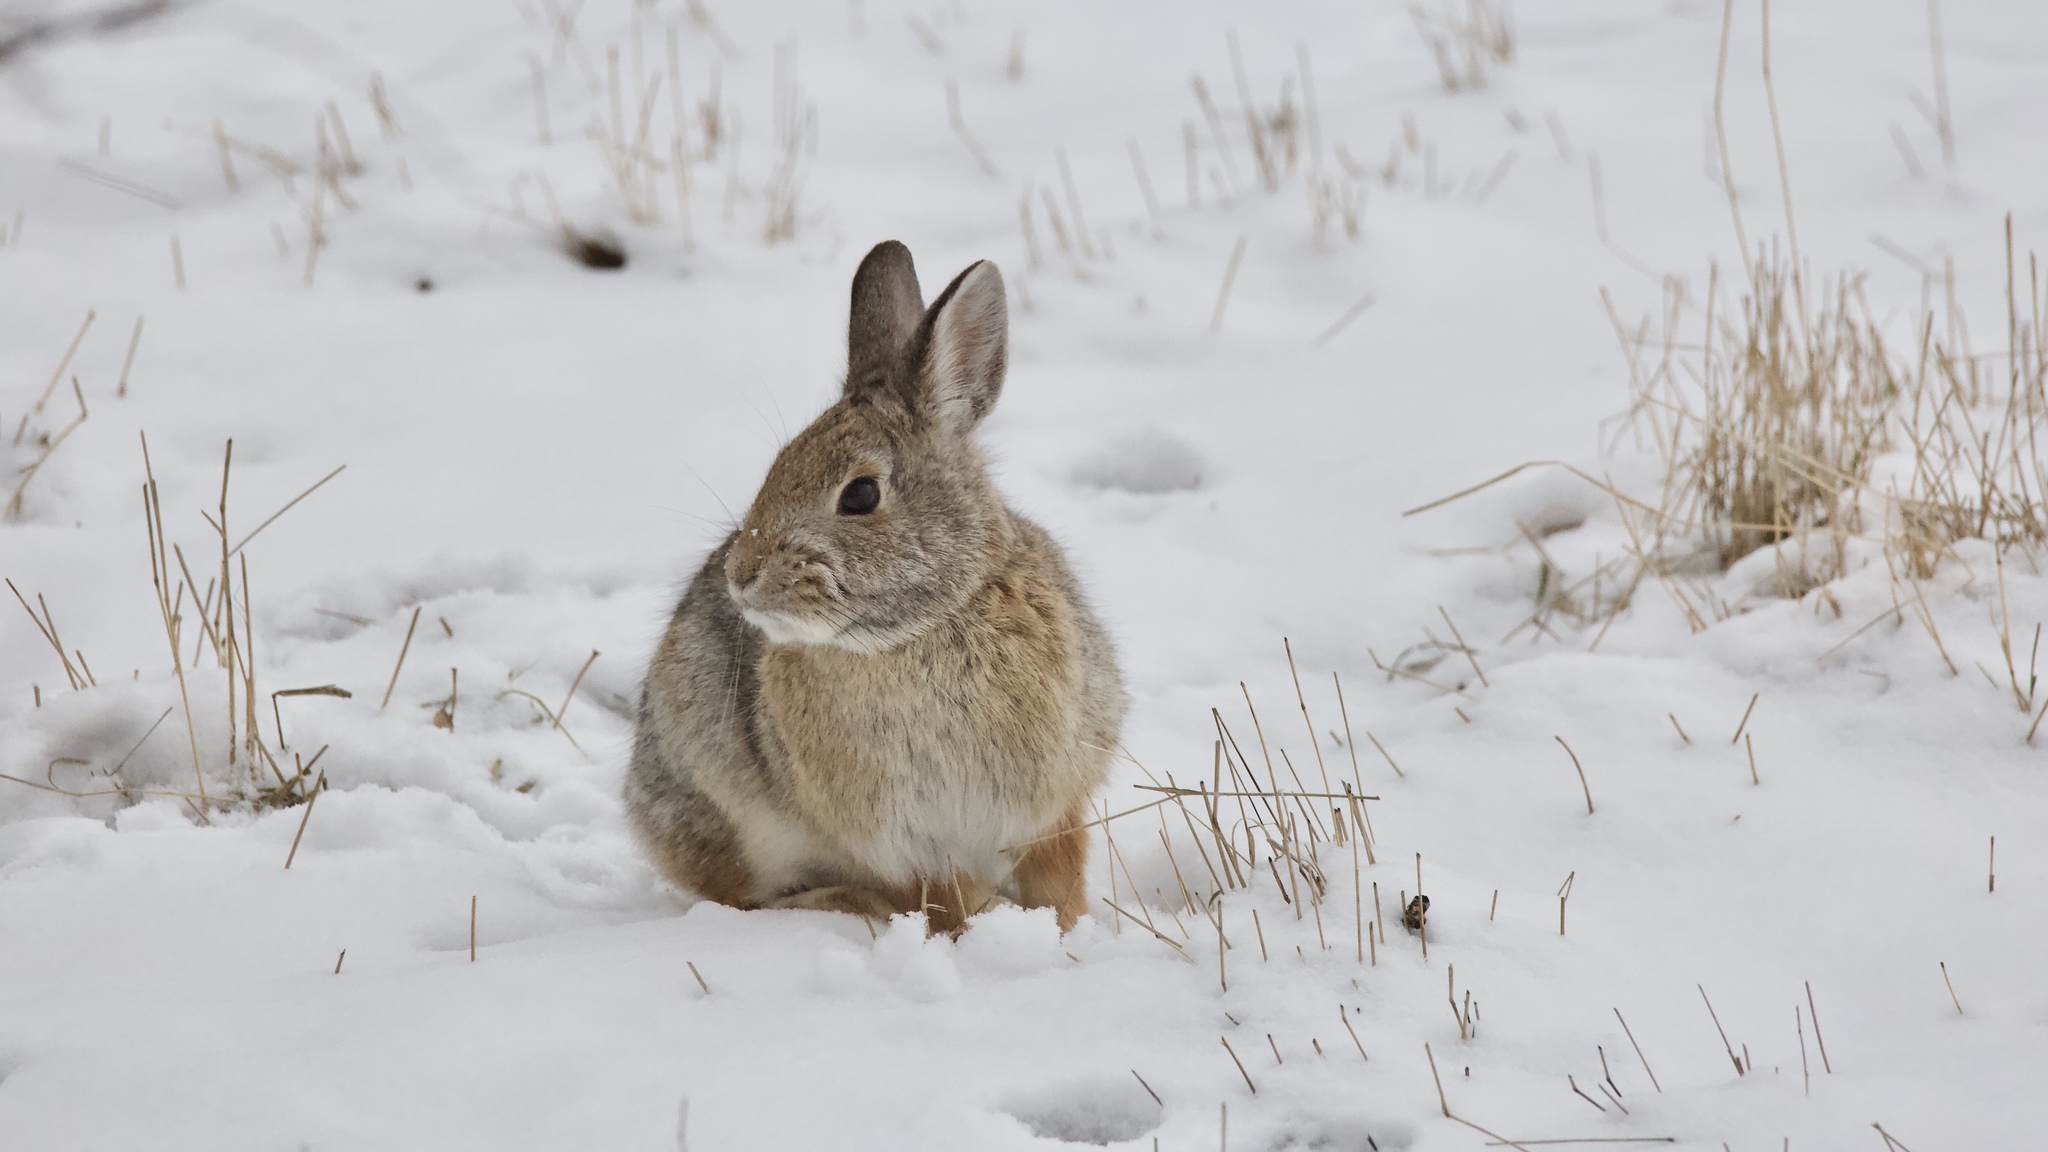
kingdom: Animalia
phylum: Chordata
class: Mammalia
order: Lagomorpha
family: Leporidae
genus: Sylvilagus
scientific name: Sylvilagus nuttallii
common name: Mountain cottontail
